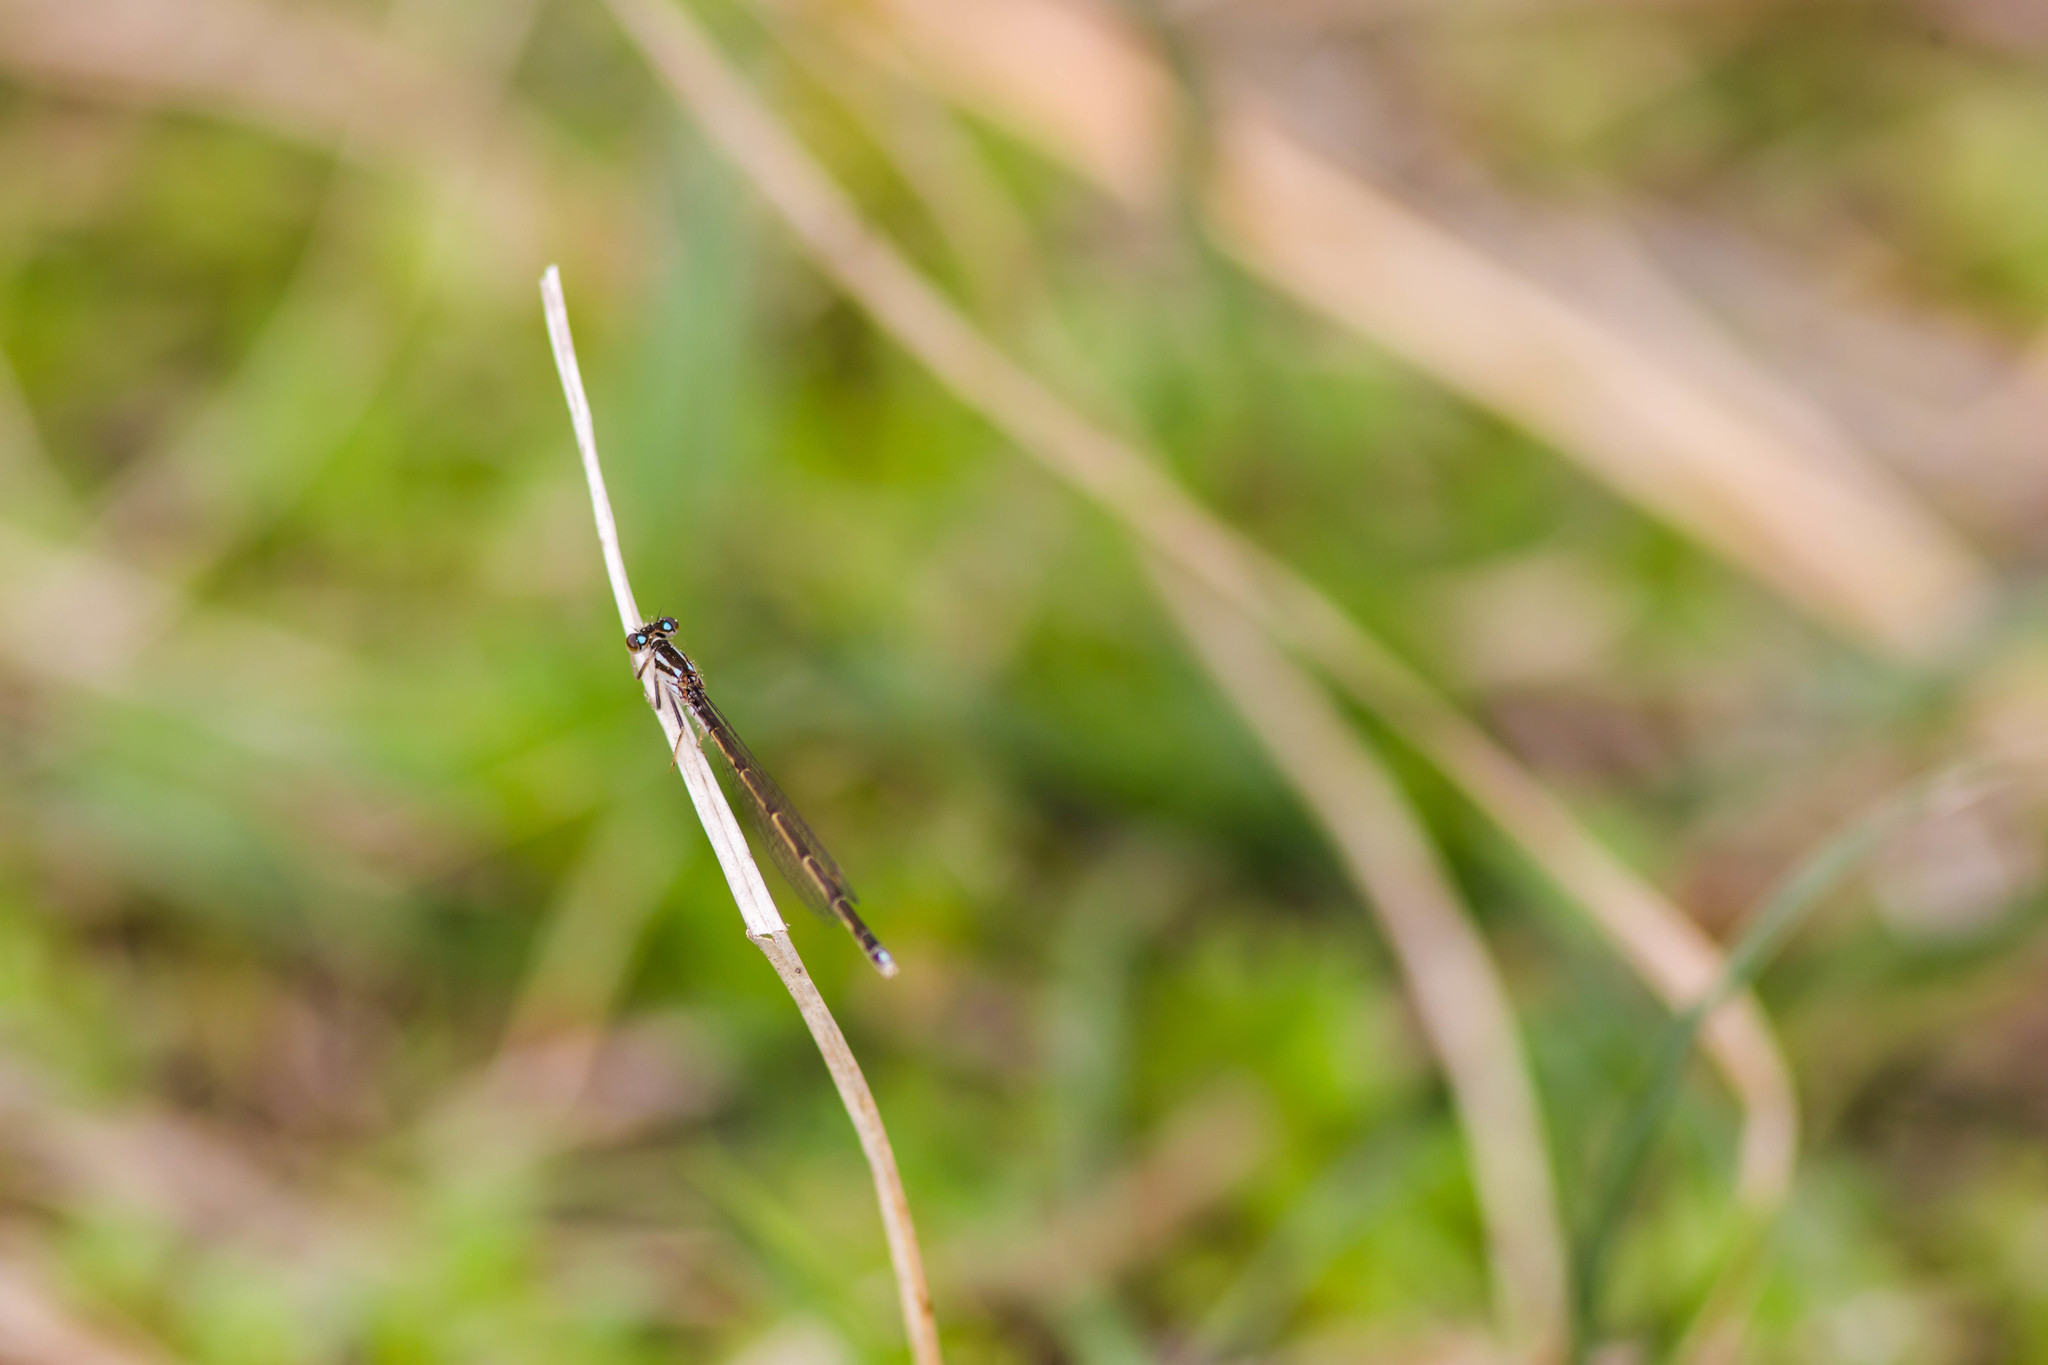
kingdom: Animalia
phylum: Arthropoda
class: Insecta
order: Odonata
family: Coenagrionidae
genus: Ischnura
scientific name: Ischnura posita
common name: Fragile forktail
